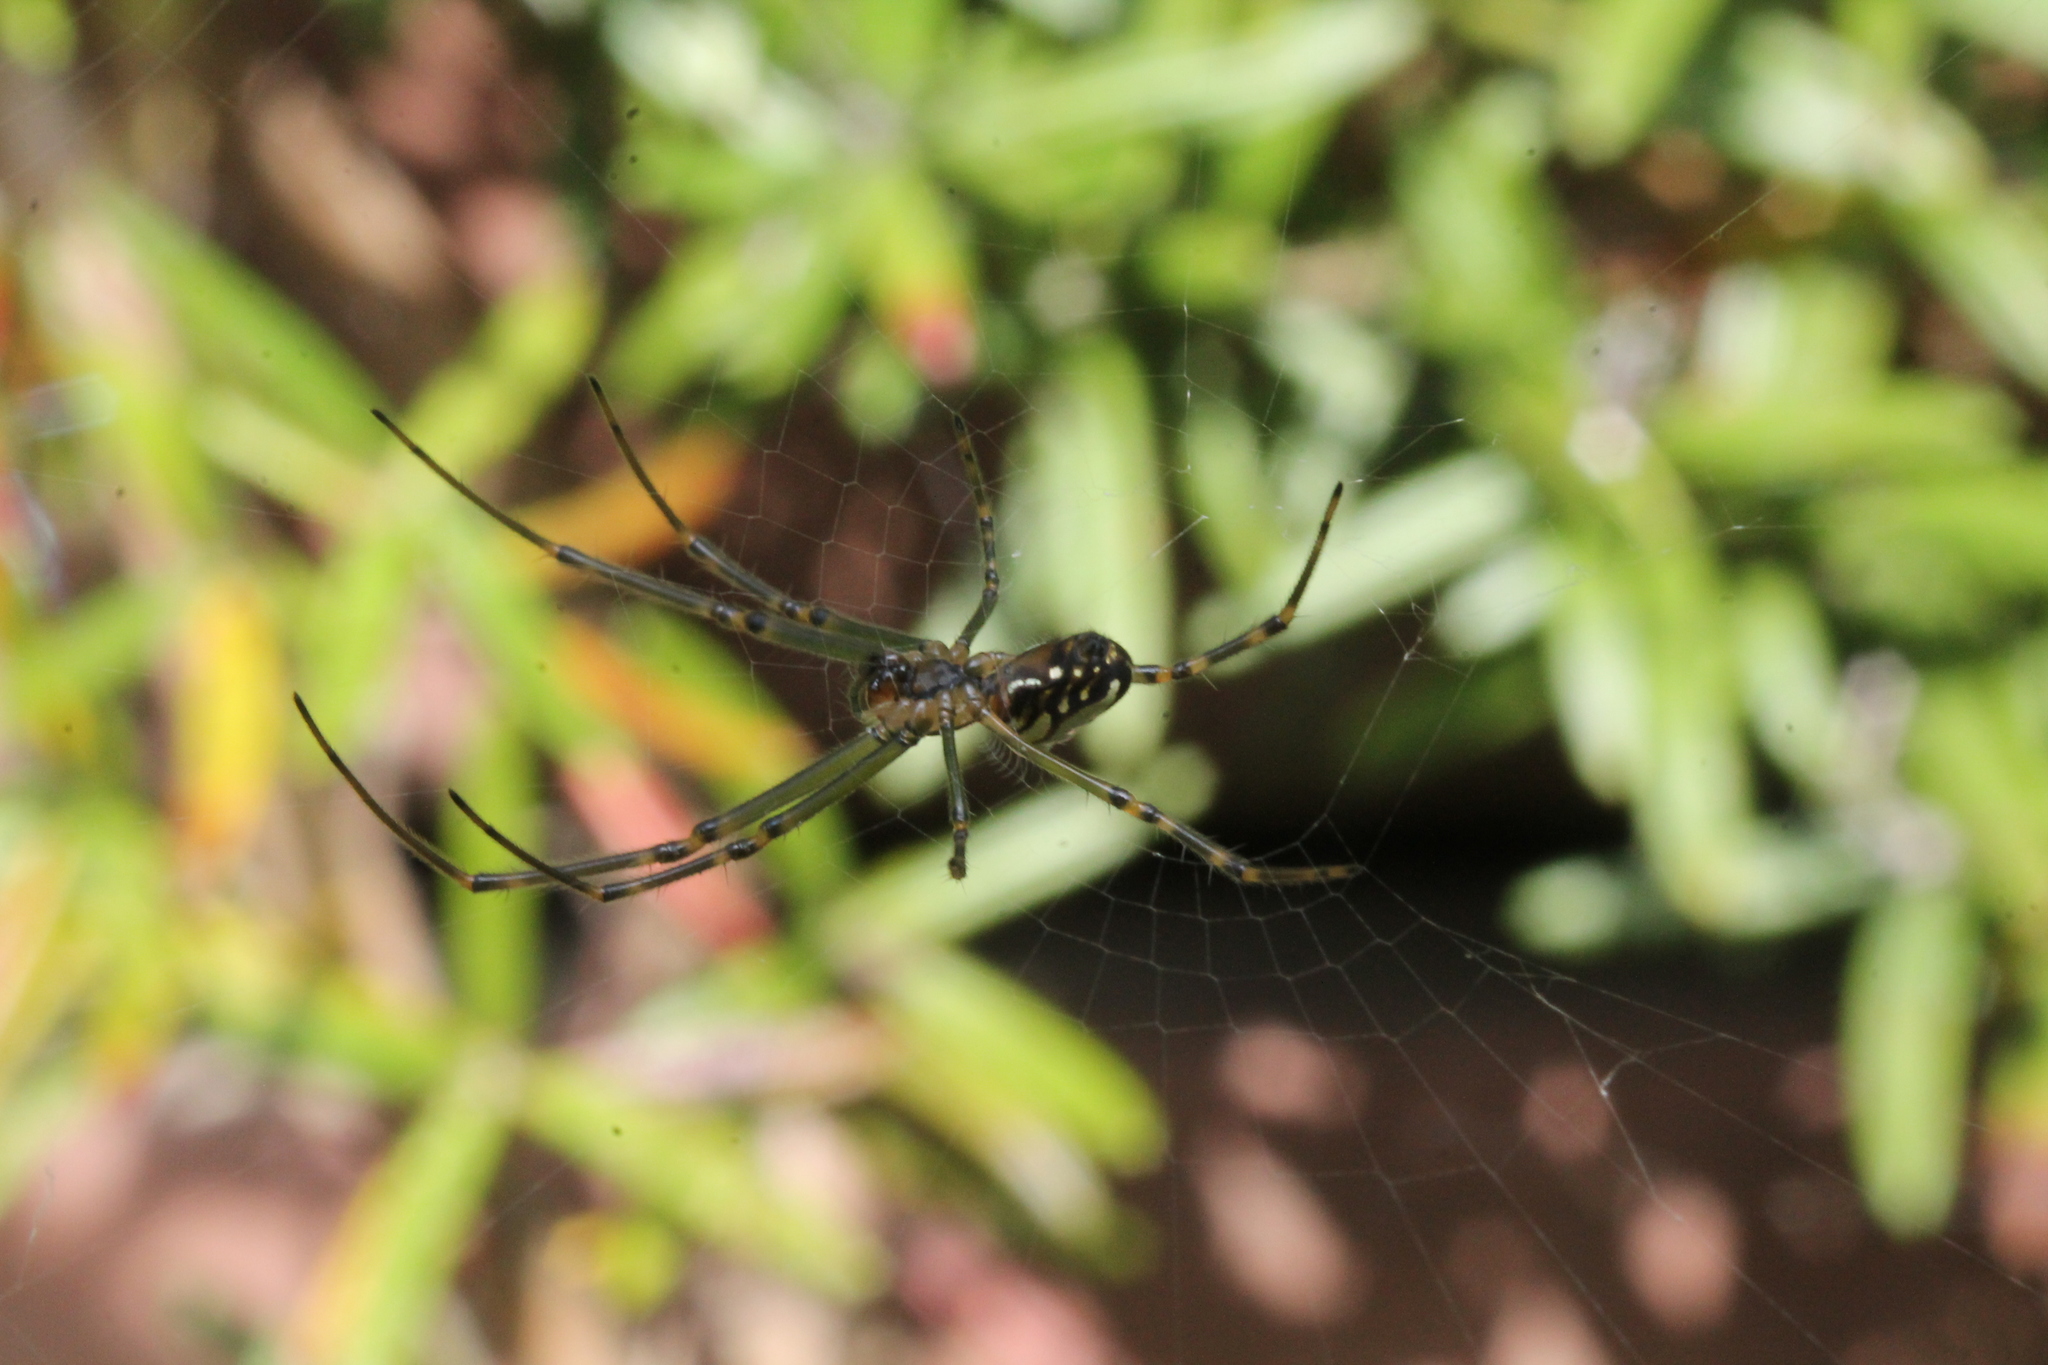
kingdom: Animalia
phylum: Arthropoda
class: Arachnida
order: Araneae
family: Tetragnathidae
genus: Leucauge
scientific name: Leucauge dromedaria
